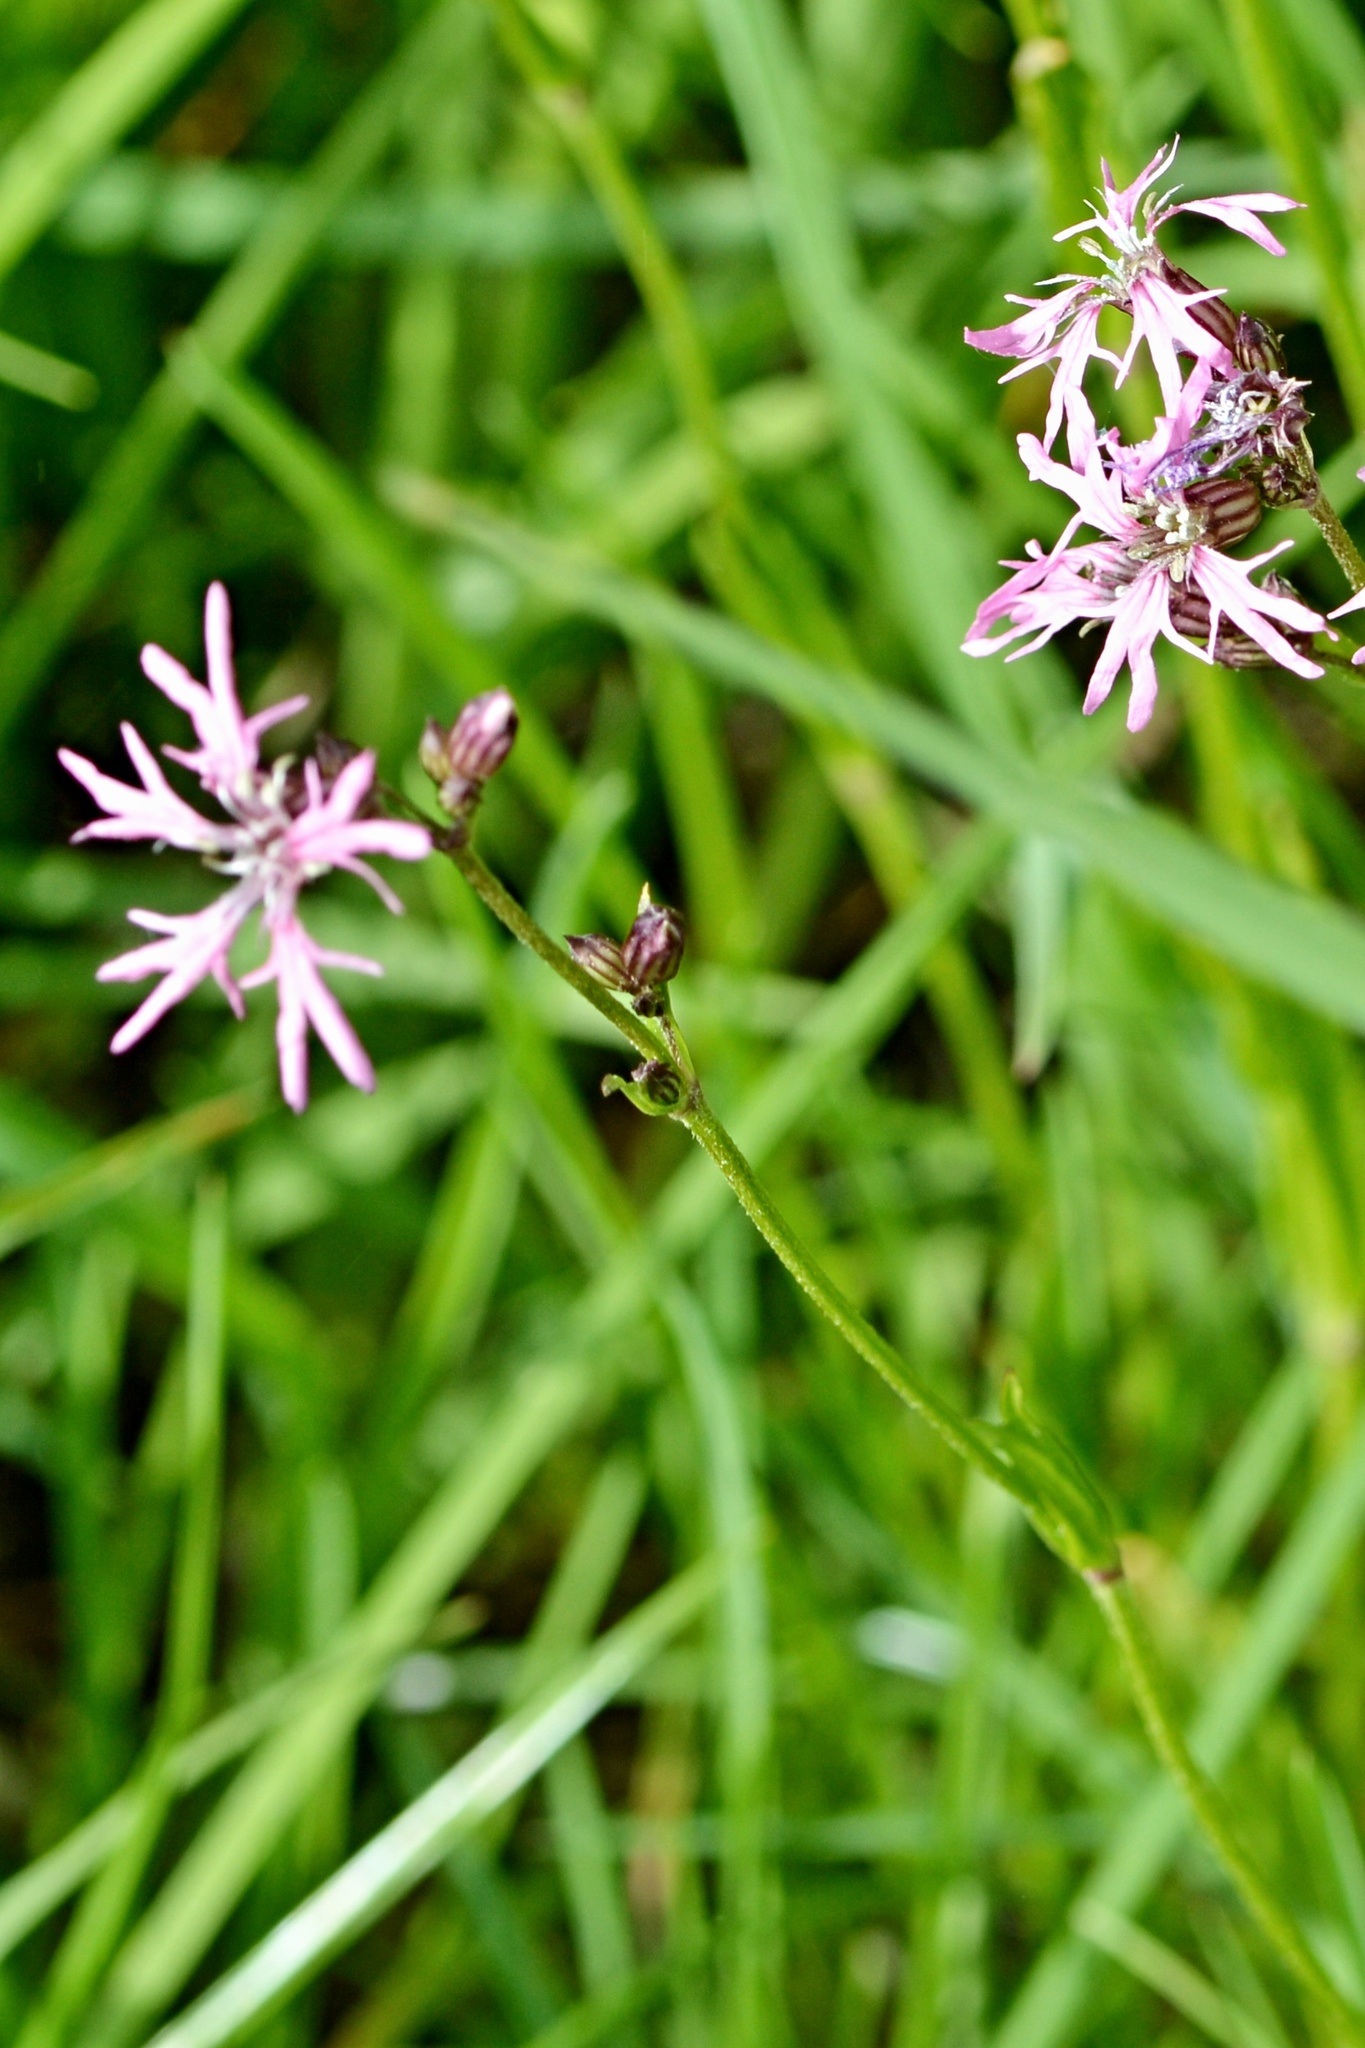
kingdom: Plantae
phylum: Tracheophyta
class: Magnoliopsida
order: Caryophyllales
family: Caryophyllaceae
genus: Silene
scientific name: Silene flos-cuculi
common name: Ragged-robin
